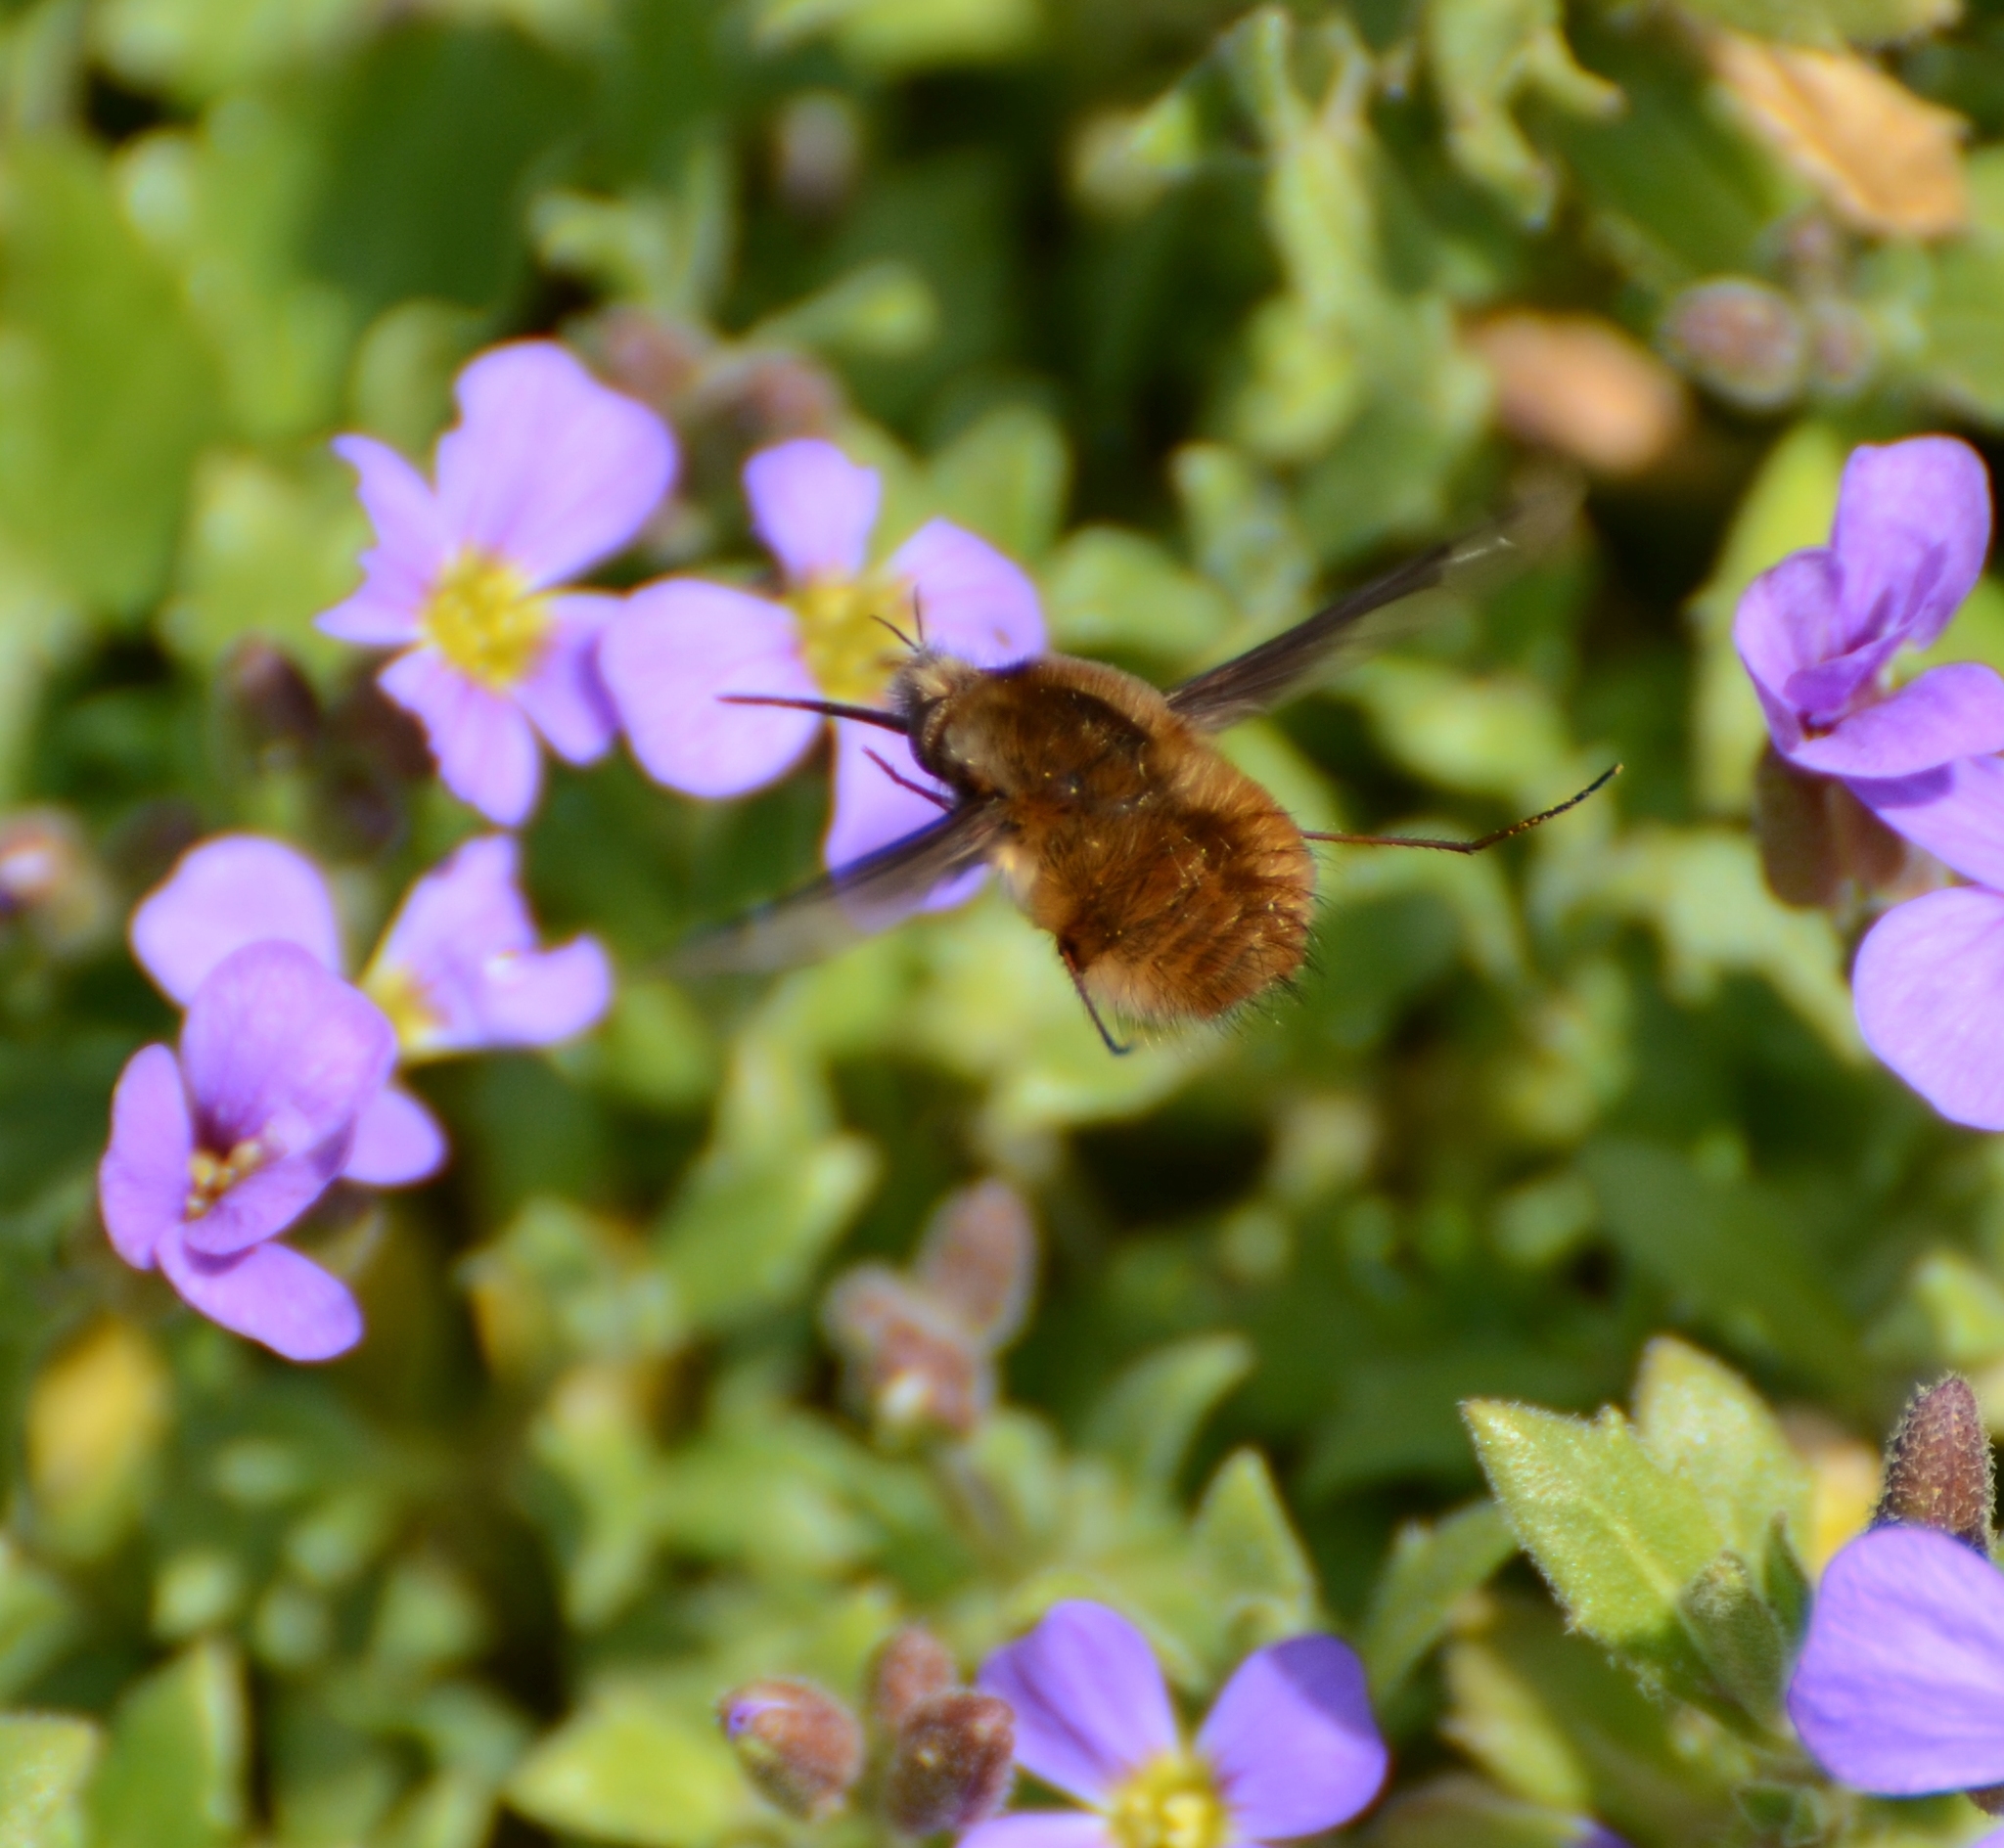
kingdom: Animalia
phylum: Arthropoda
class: Insecta
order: Diptera
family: Bombyliidae
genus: Bombylius
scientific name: Bombylius major
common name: Bee fly
